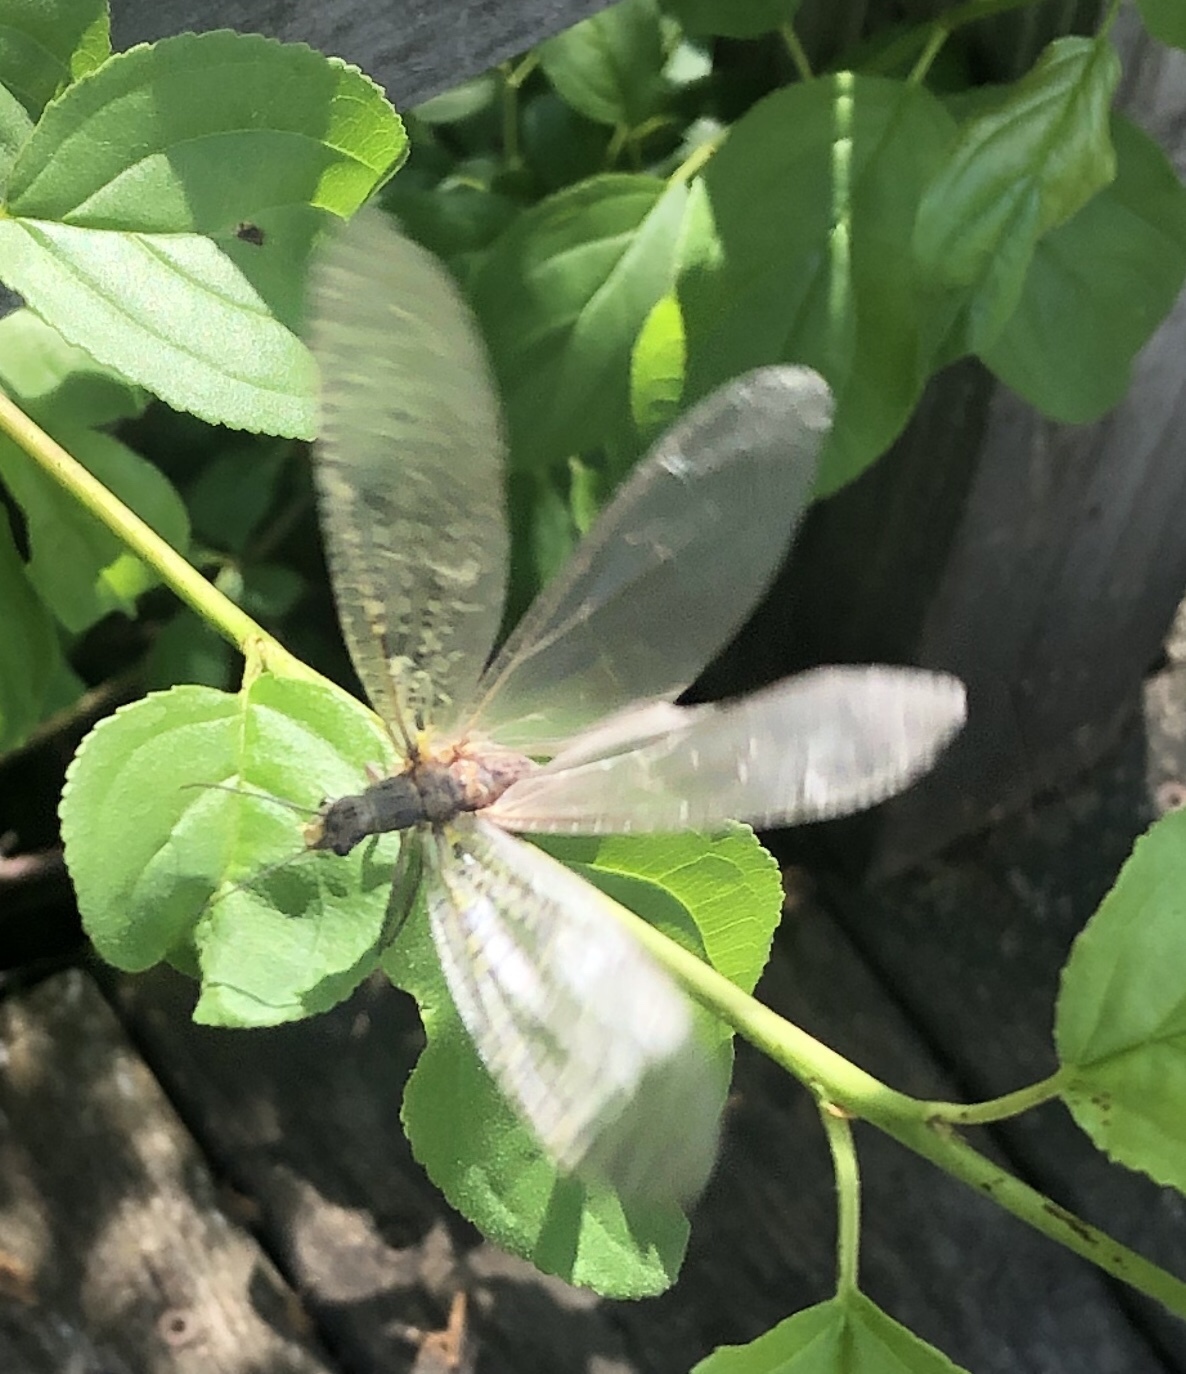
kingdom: Animalia
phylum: Arthropoda
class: Insecta
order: Megaloptera
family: Corydalidae
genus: Chauliodes
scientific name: Chauliodes rastricornis
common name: Spring fishfly
